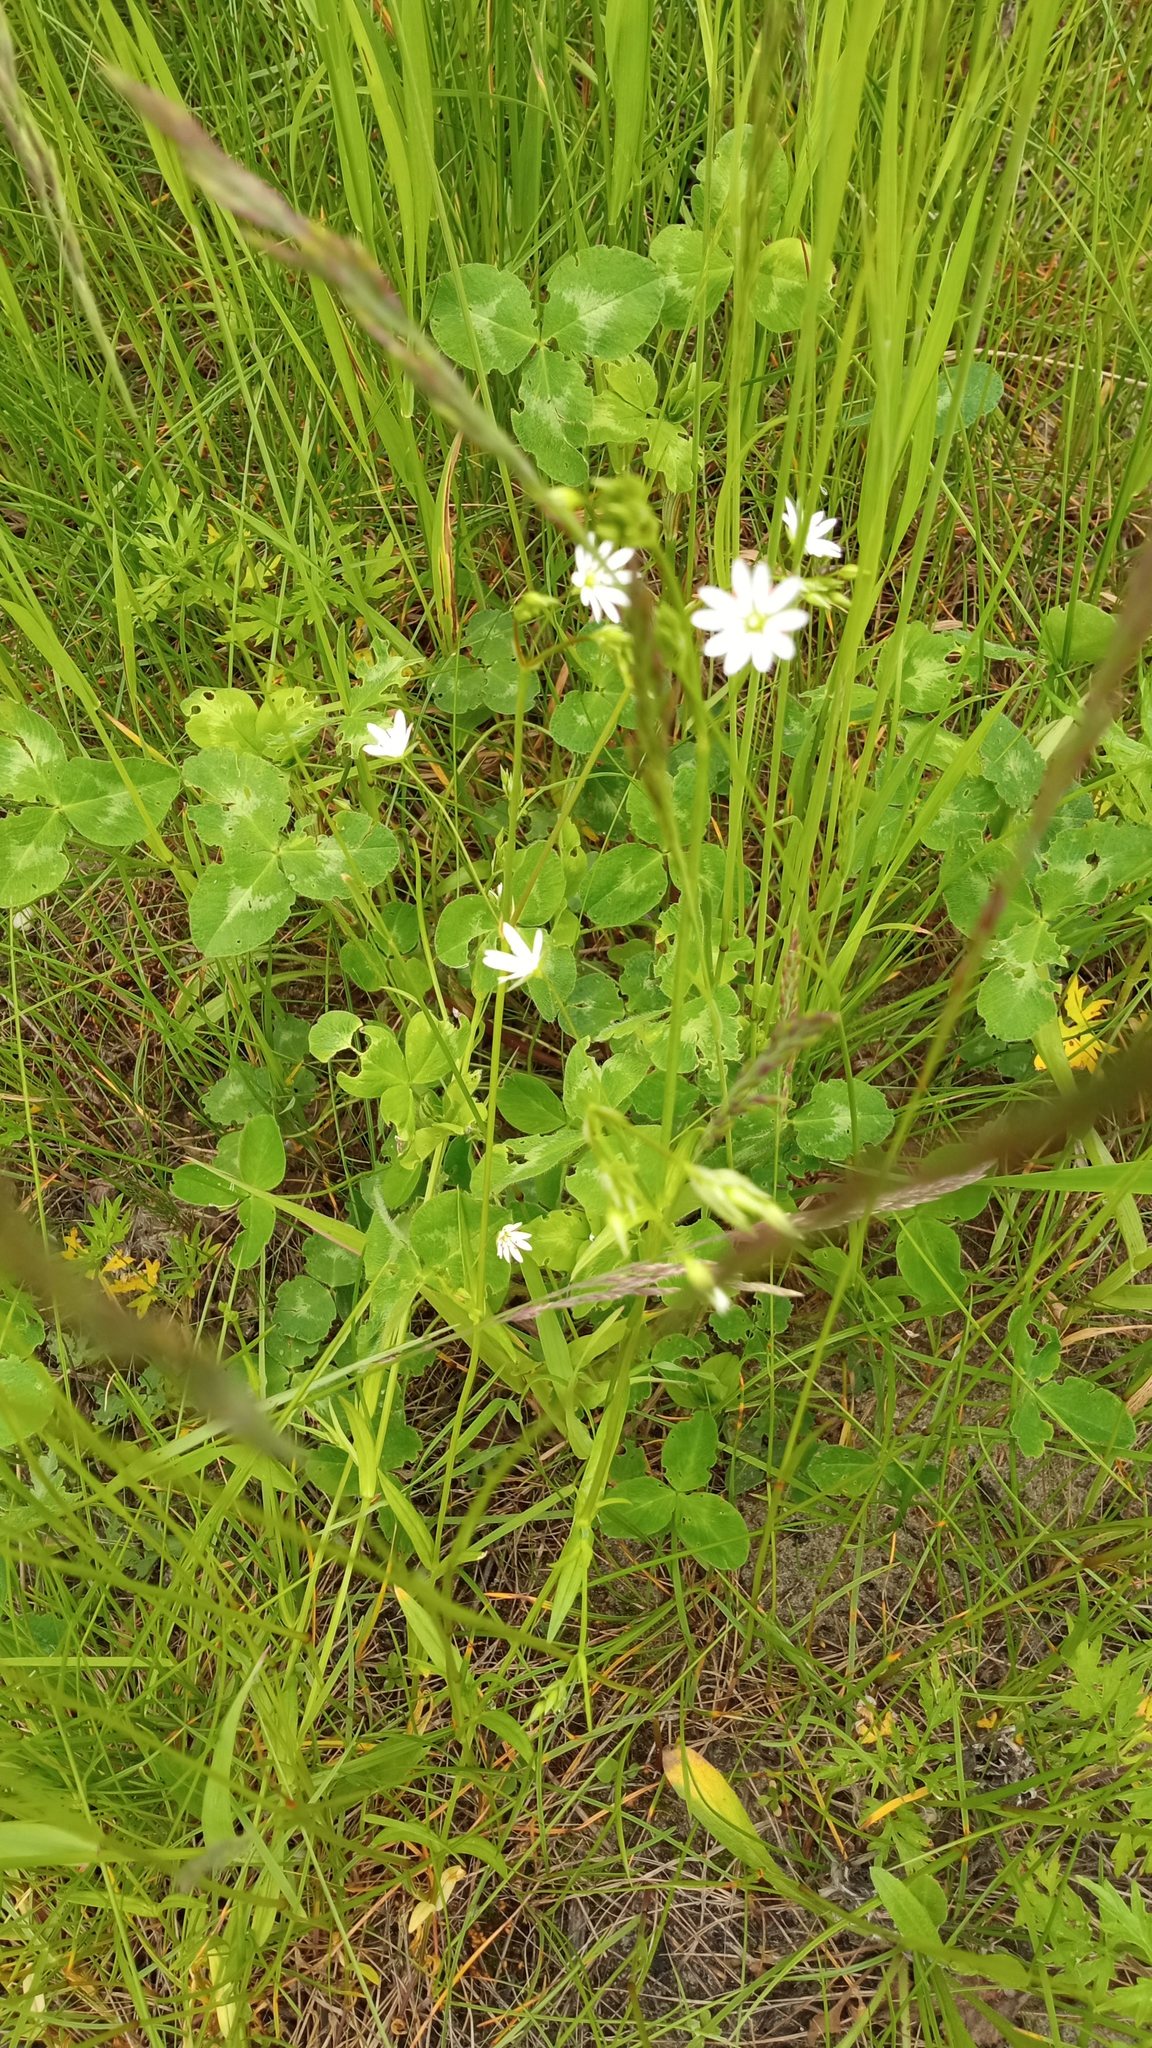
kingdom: Plantae
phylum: Tracheophyta
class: Magnoliopsida
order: Caryophyllales
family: Caryophyllaceae
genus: Stellaria
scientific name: Stellaria graminea
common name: Grass-like starwort
